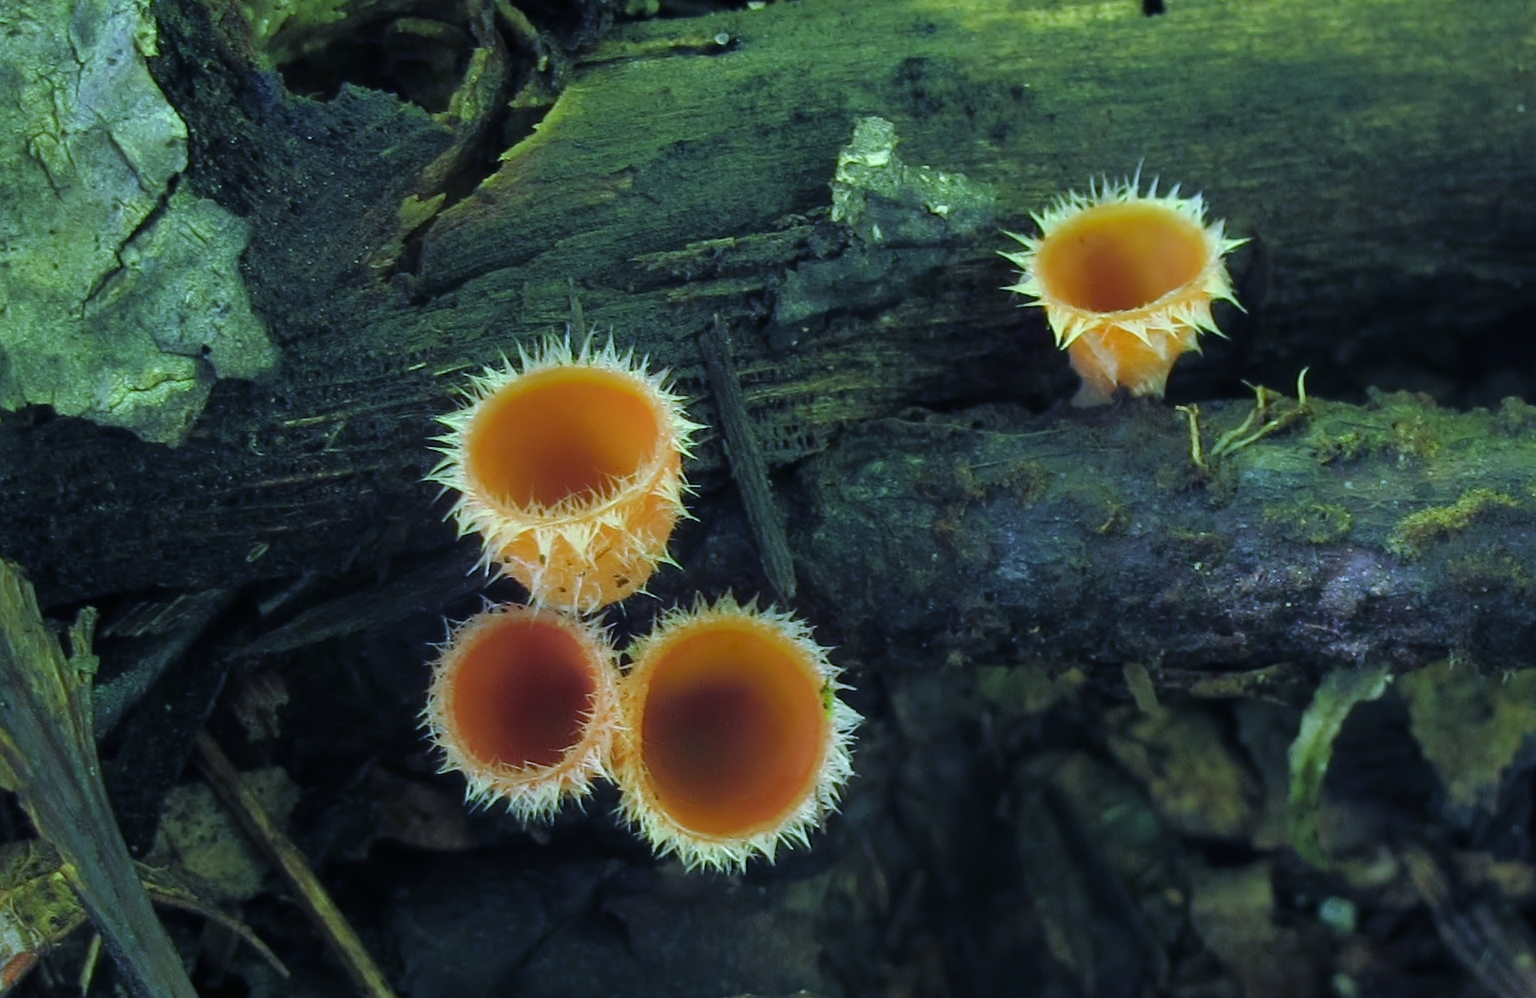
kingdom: Fungi
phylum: Ascomycota
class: Pezizomycetes
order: Pezizales
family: Sarcoscyphaceae
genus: Microstoma
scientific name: Microstoma floccosum
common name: Pink fringed faery cup
